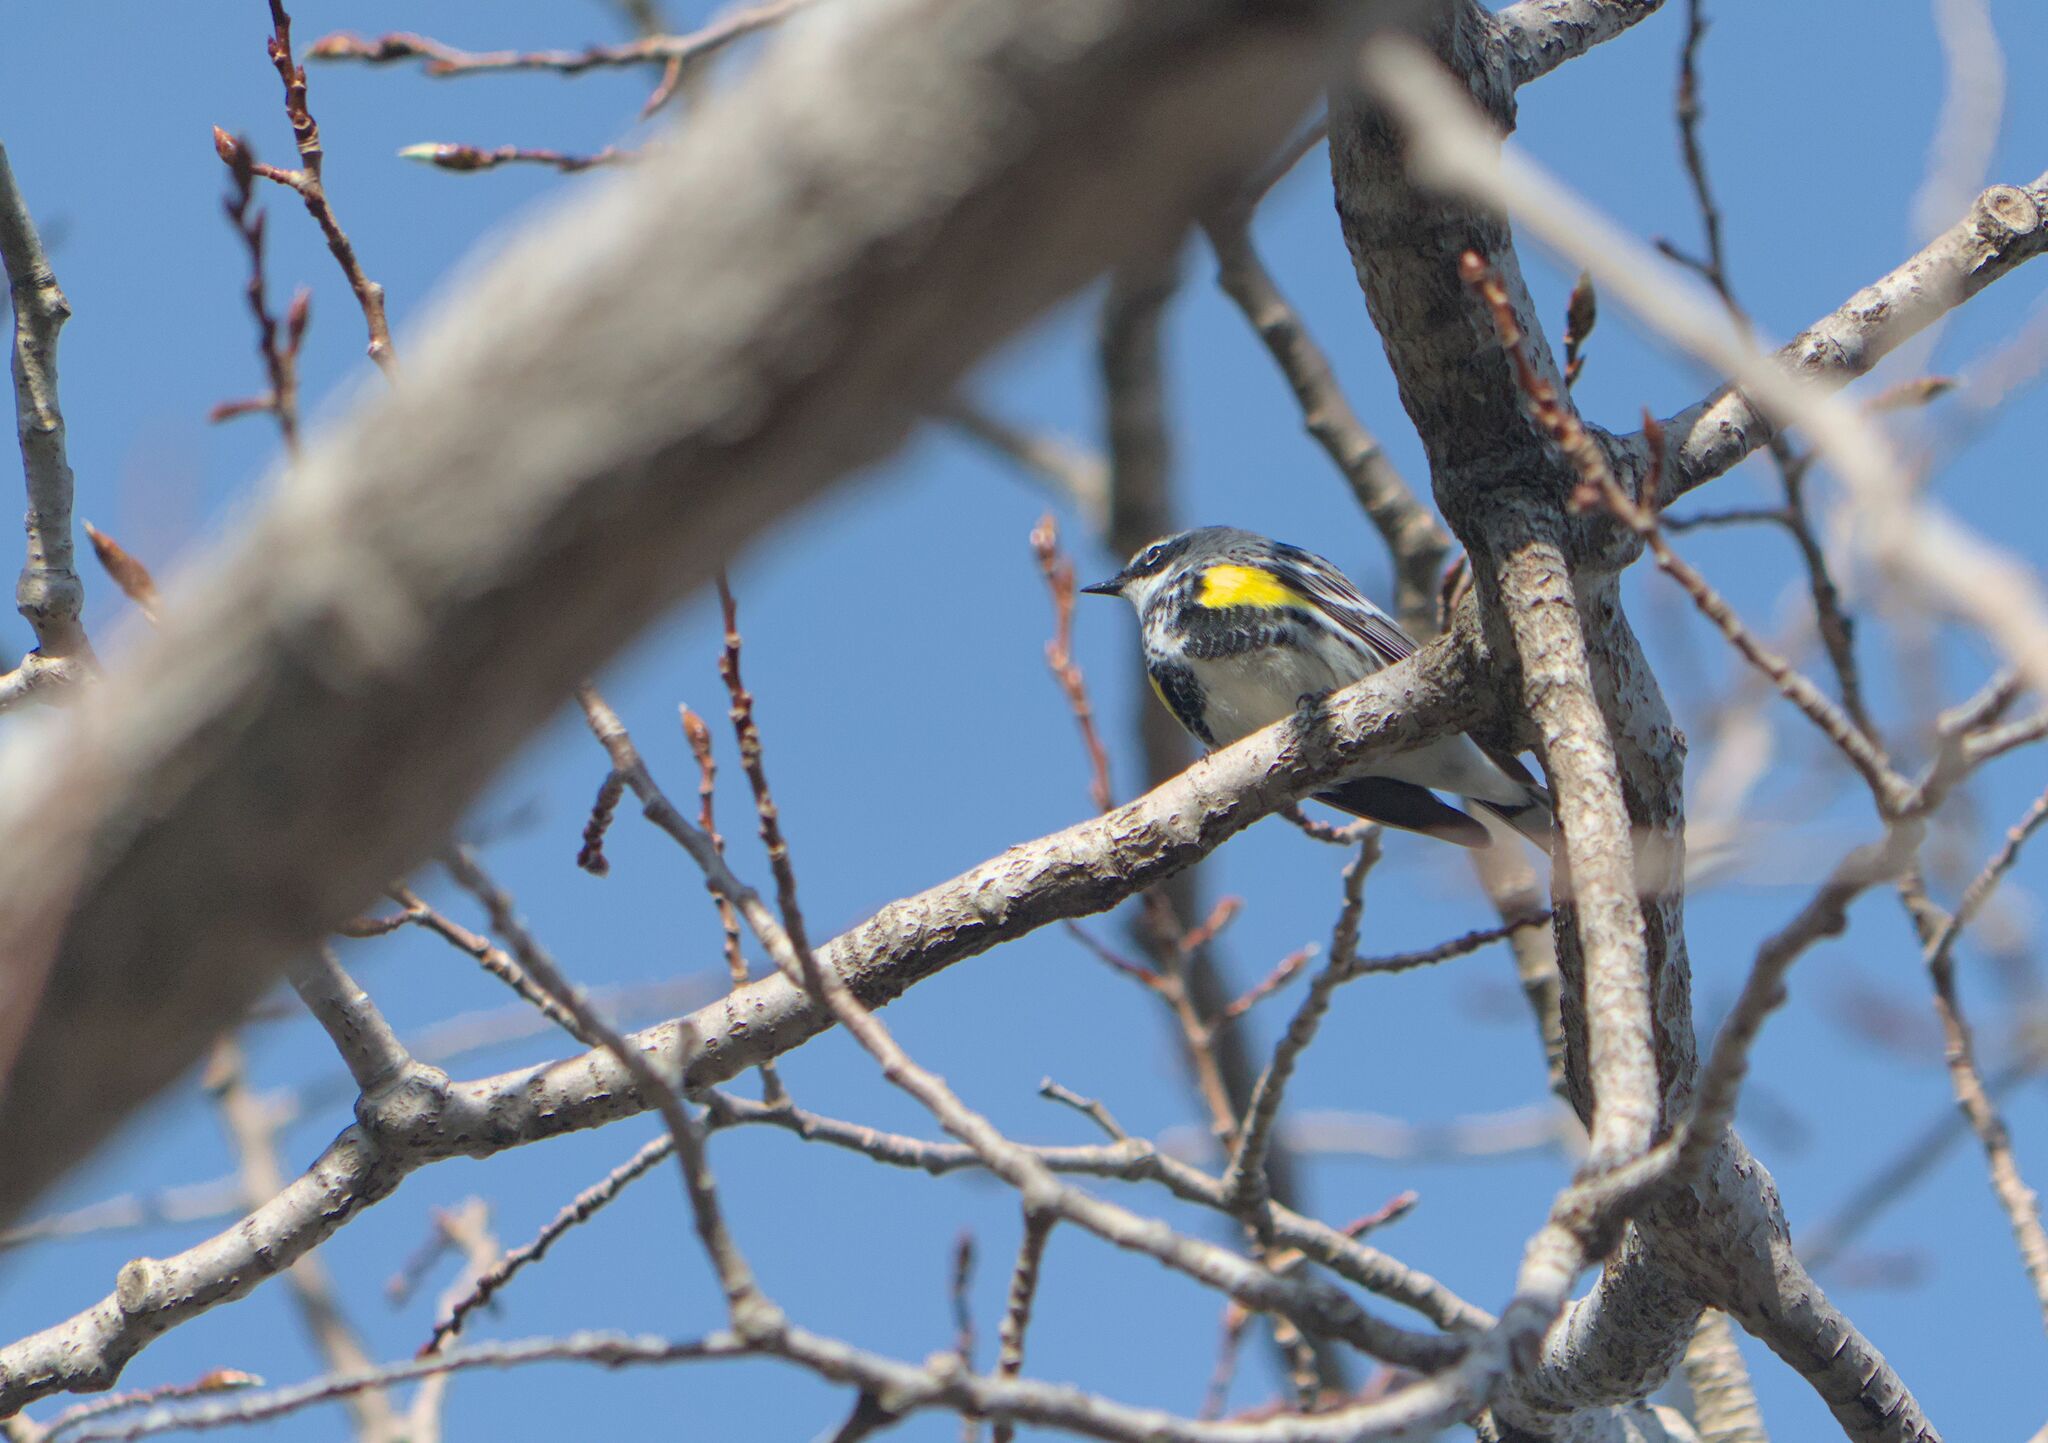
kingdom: Animalia
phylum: Chordata
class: Aves
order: Passeriformes
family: Parulidae
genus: Setophaga
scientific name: Setophaga coronata
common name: Myrtle warbler
